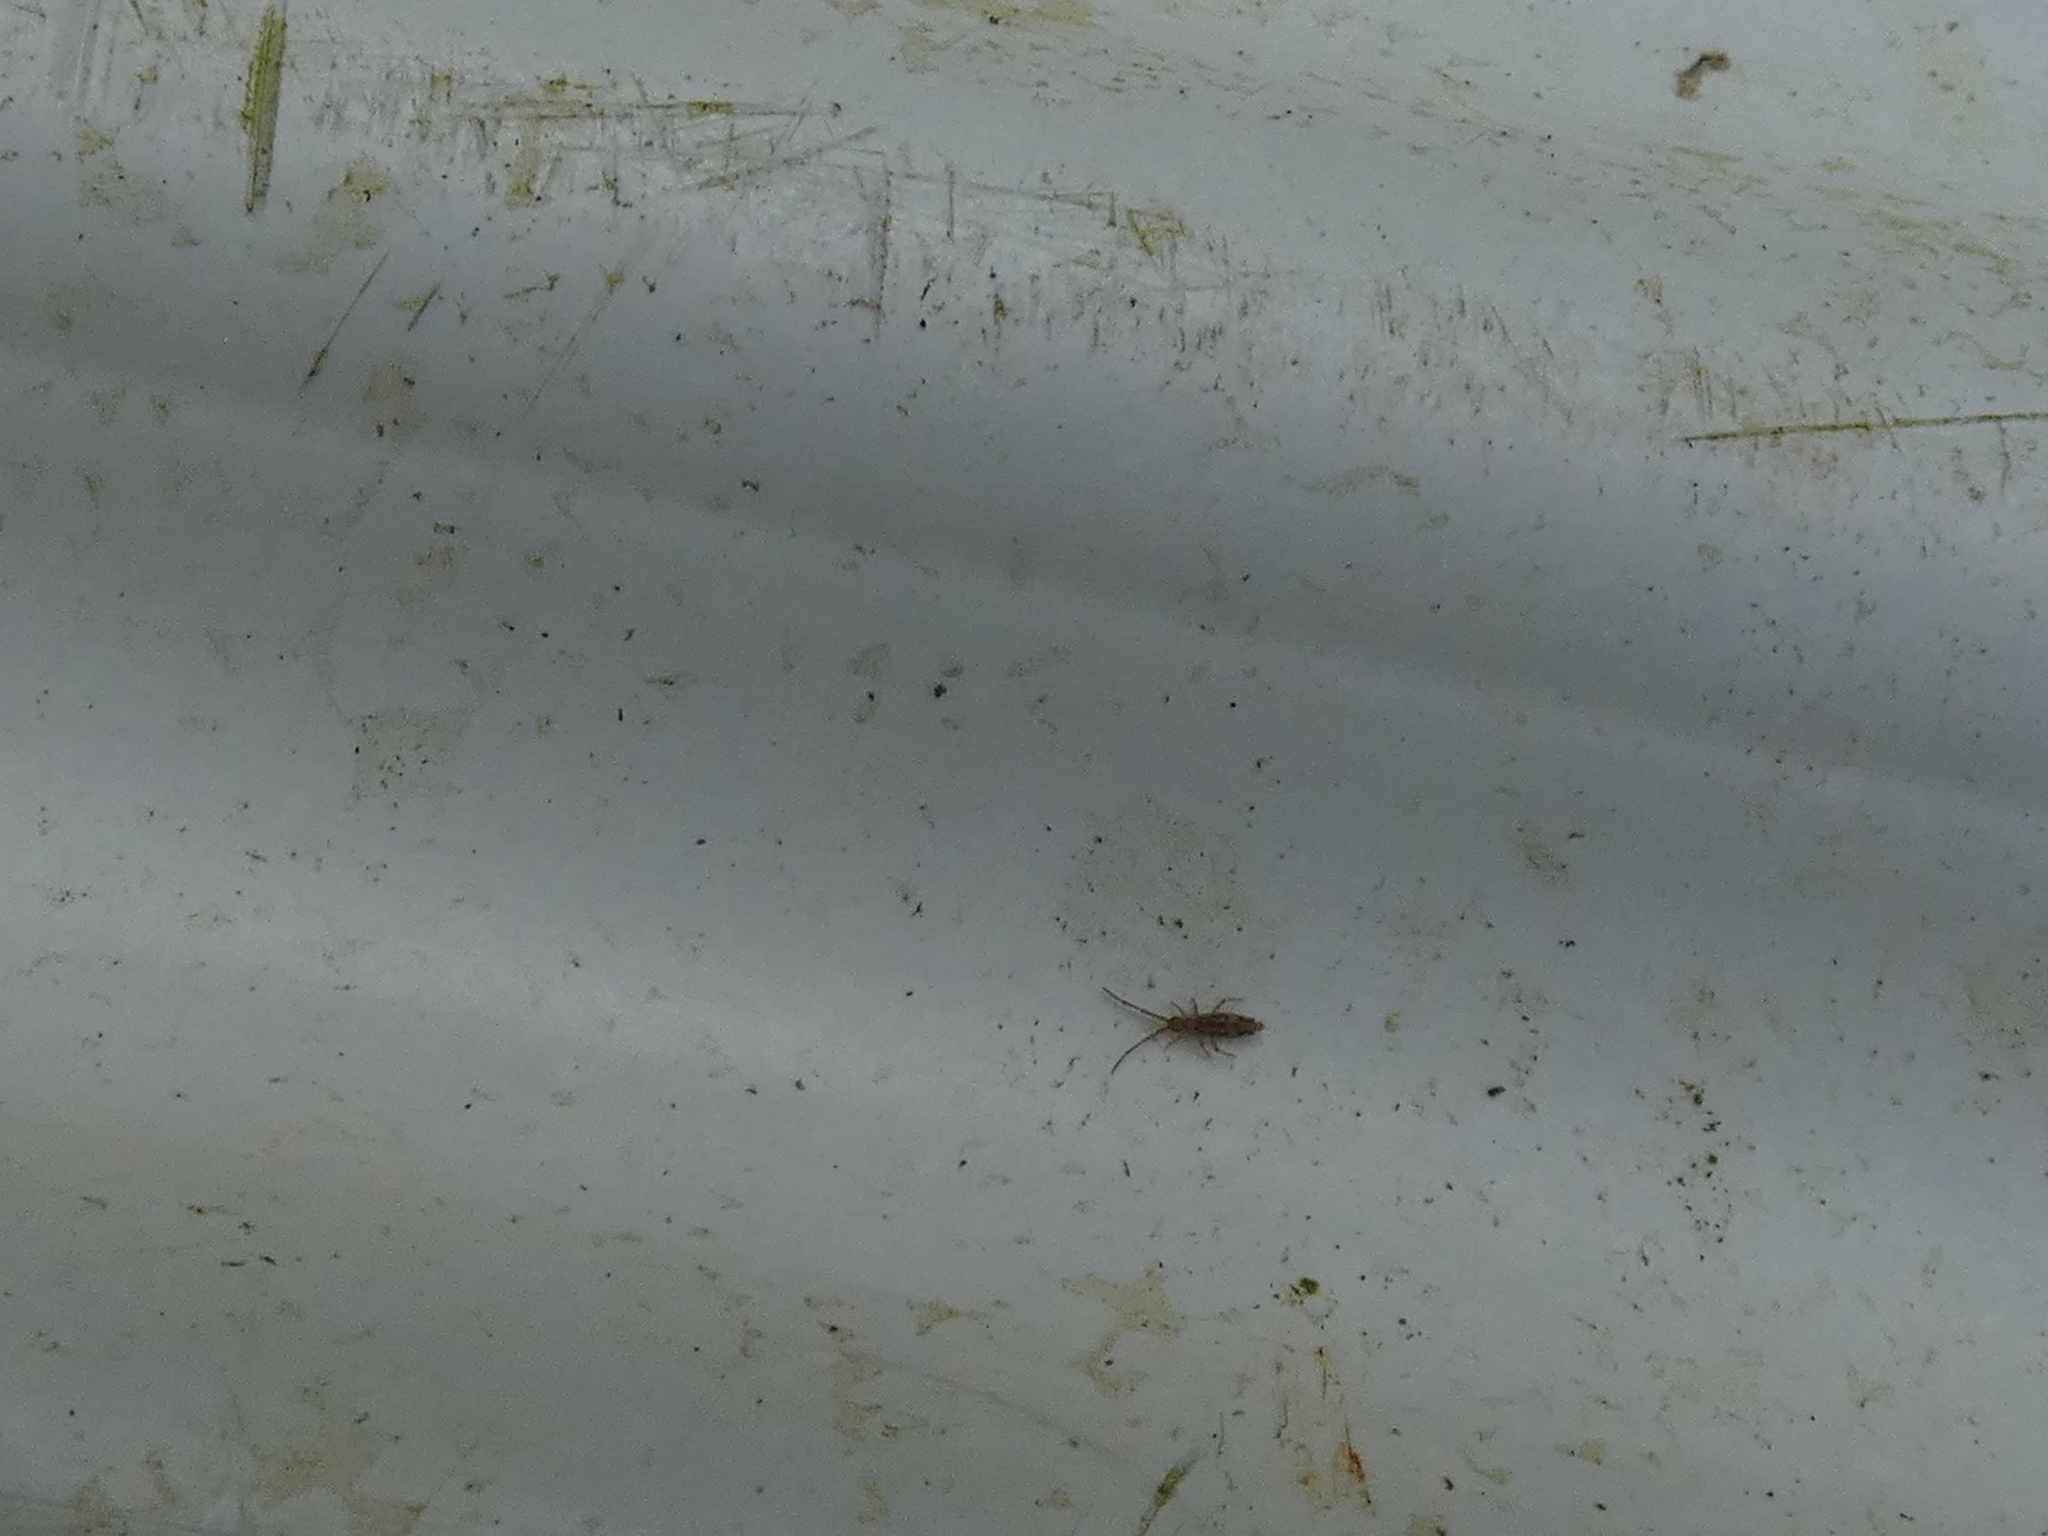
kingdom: Animalia
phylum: Arthropoda
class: Collembola
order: Entomobryomorpha
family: Entomobryidae
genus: Entomobrya
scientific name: Entomobrya intermedia
